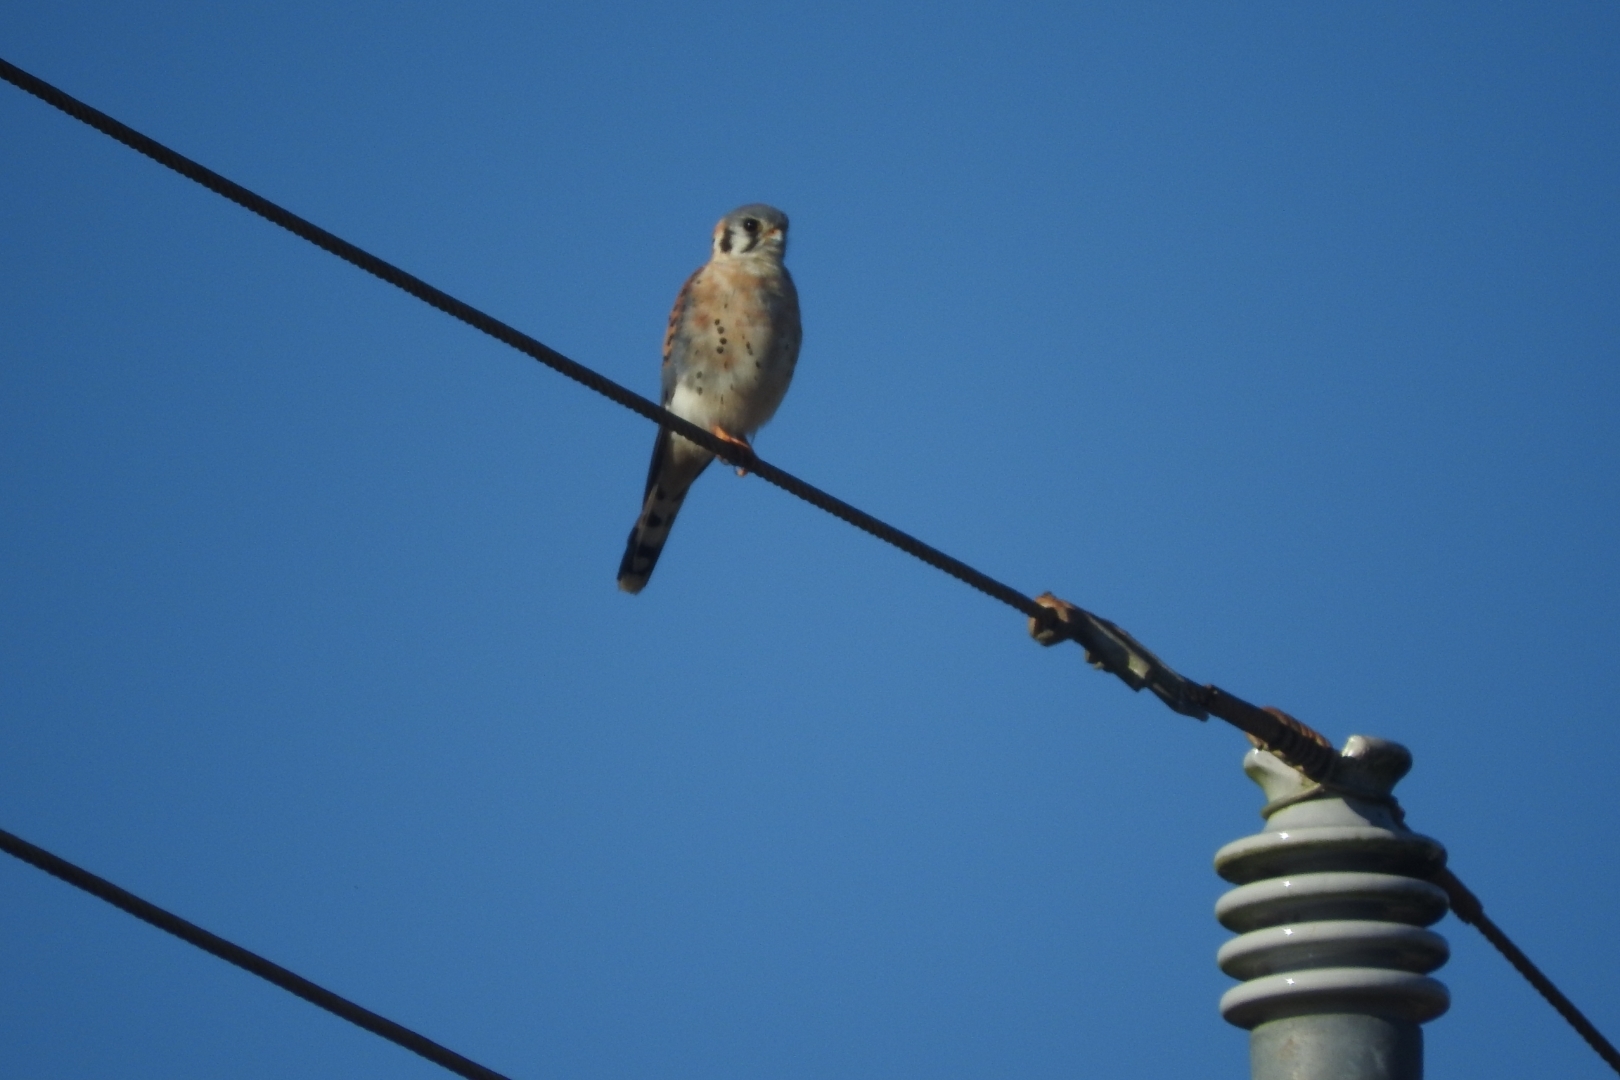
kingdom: Animalia
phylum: Chordata
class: Aves
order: Falconiformes
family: Falconidae
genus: Falco
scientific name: Falco sparverius
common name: American kestrel
